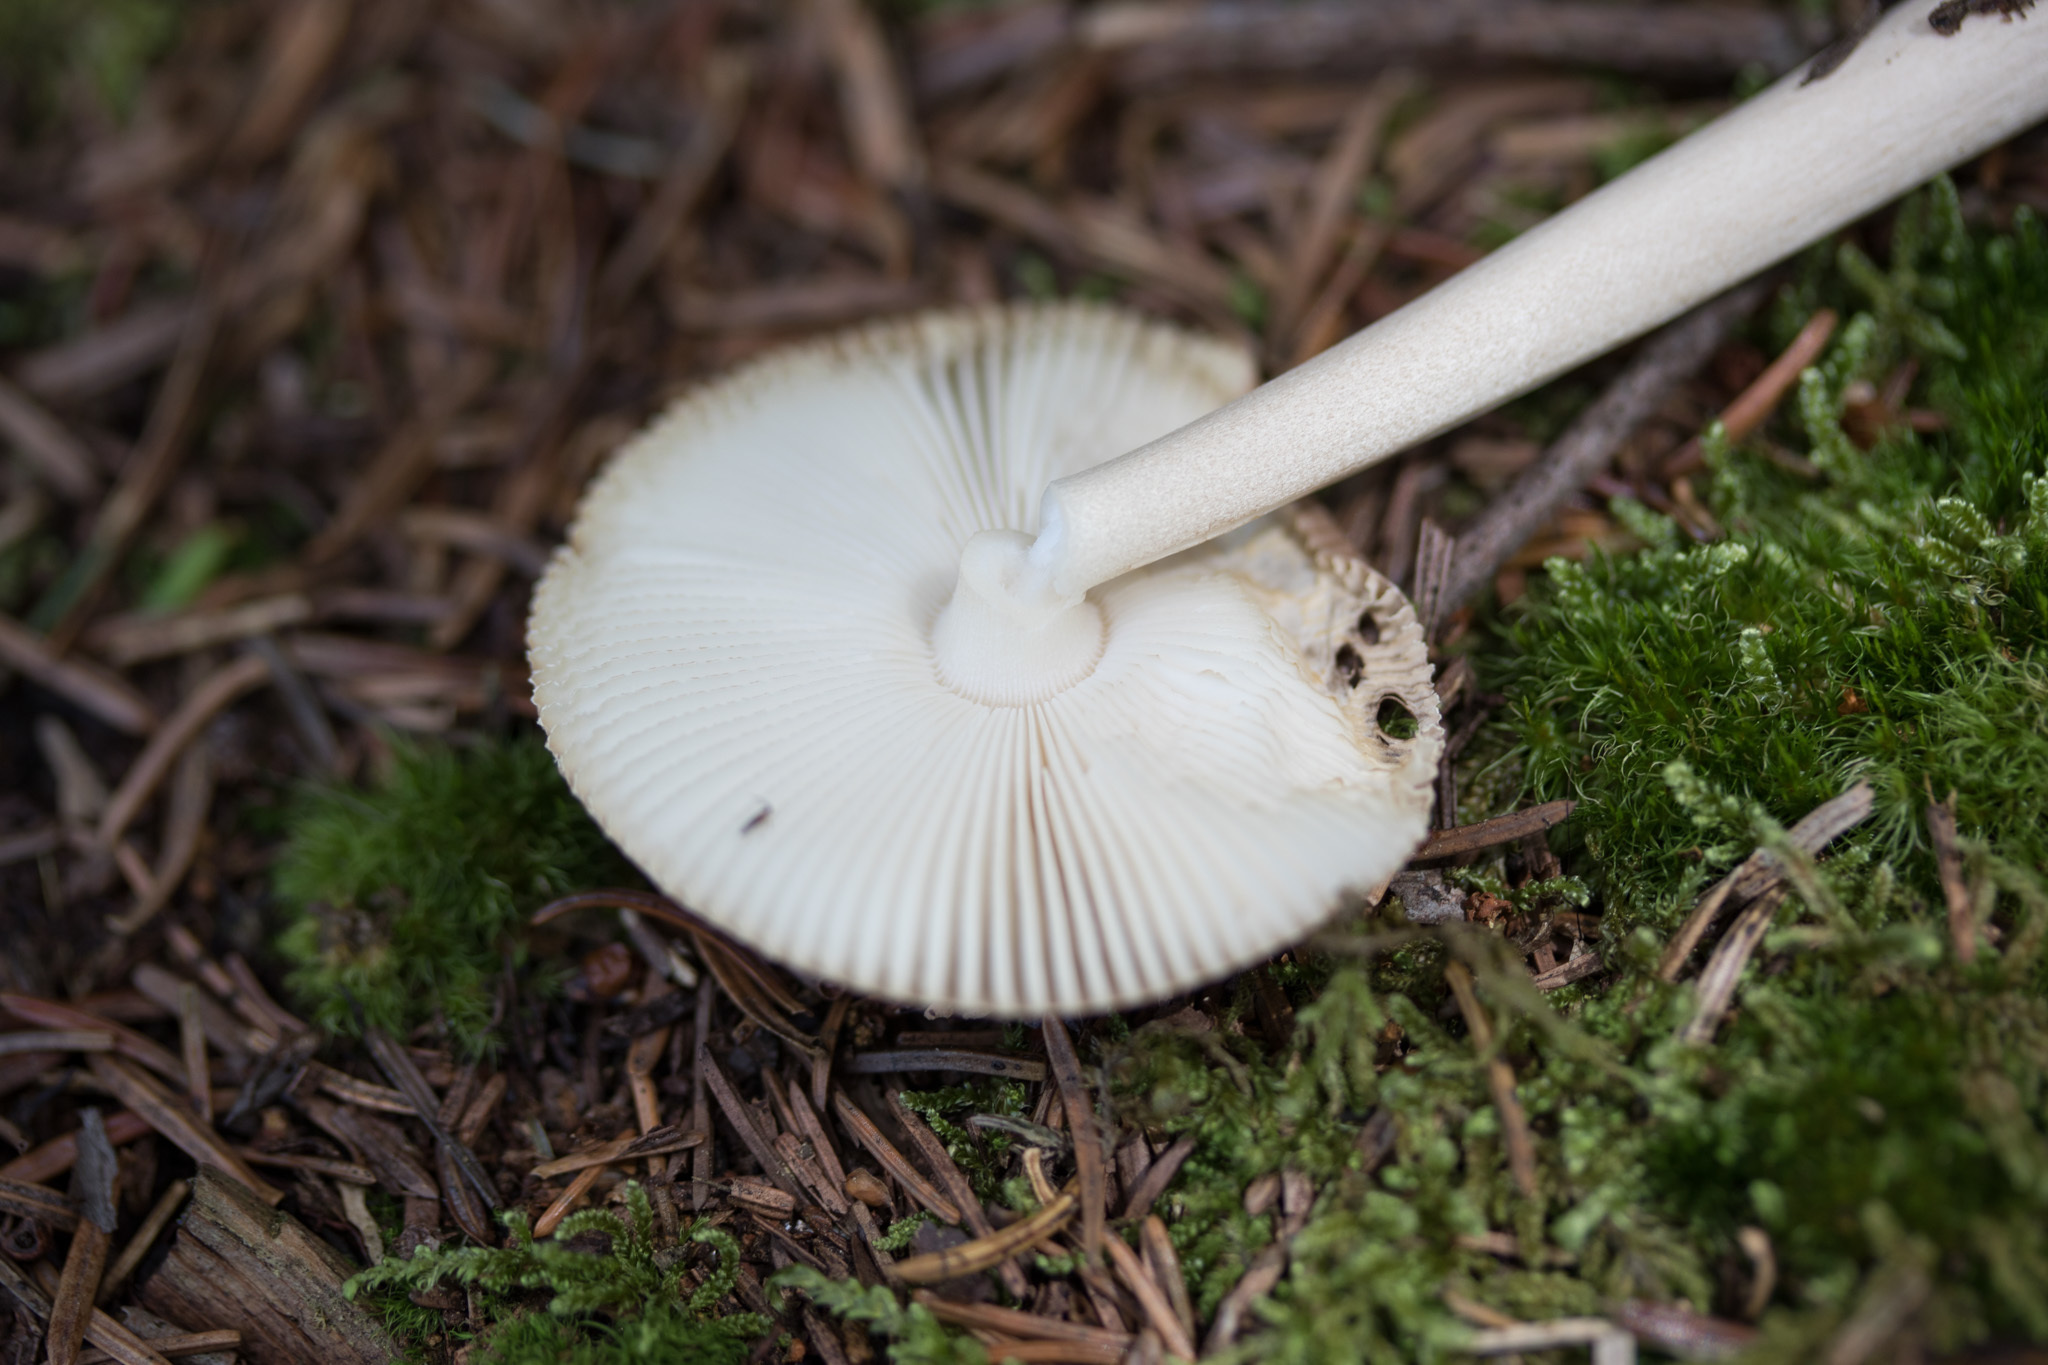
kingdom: Fungi
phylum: Basidiomycota
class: Agaricomycetes
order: Agaricales
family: Amanitaceae
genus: Amanita
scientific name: Amanita fulva
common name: Tawny grisette
